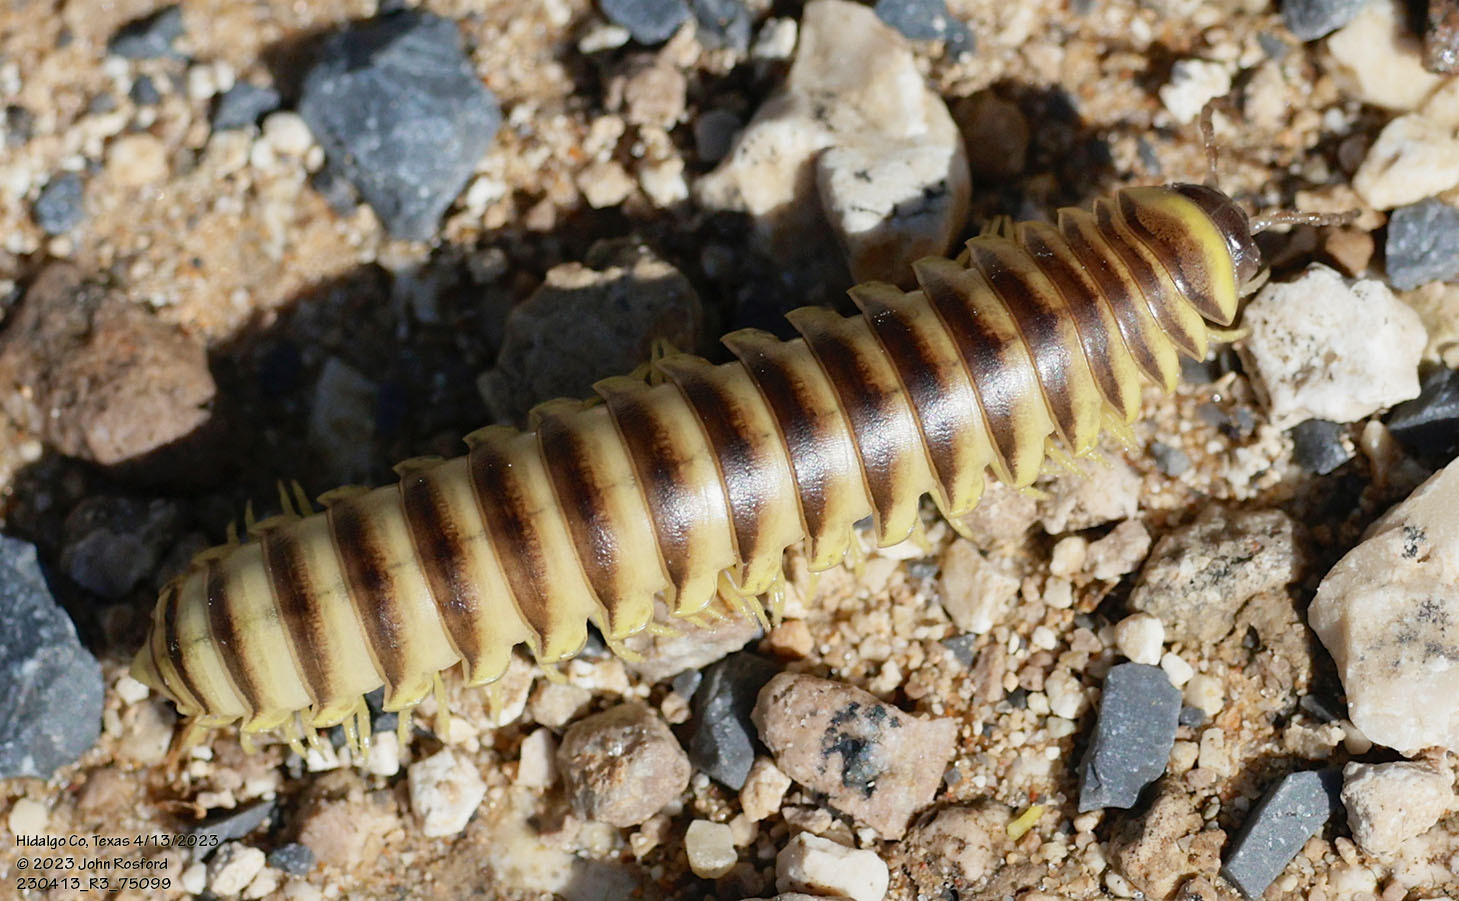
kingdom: Animalia
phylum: Arthropoda
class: Diplopoda
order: Polydesmida
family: Xystodesmidae
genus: Aporiaria
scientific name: Aporiaria texicolens
